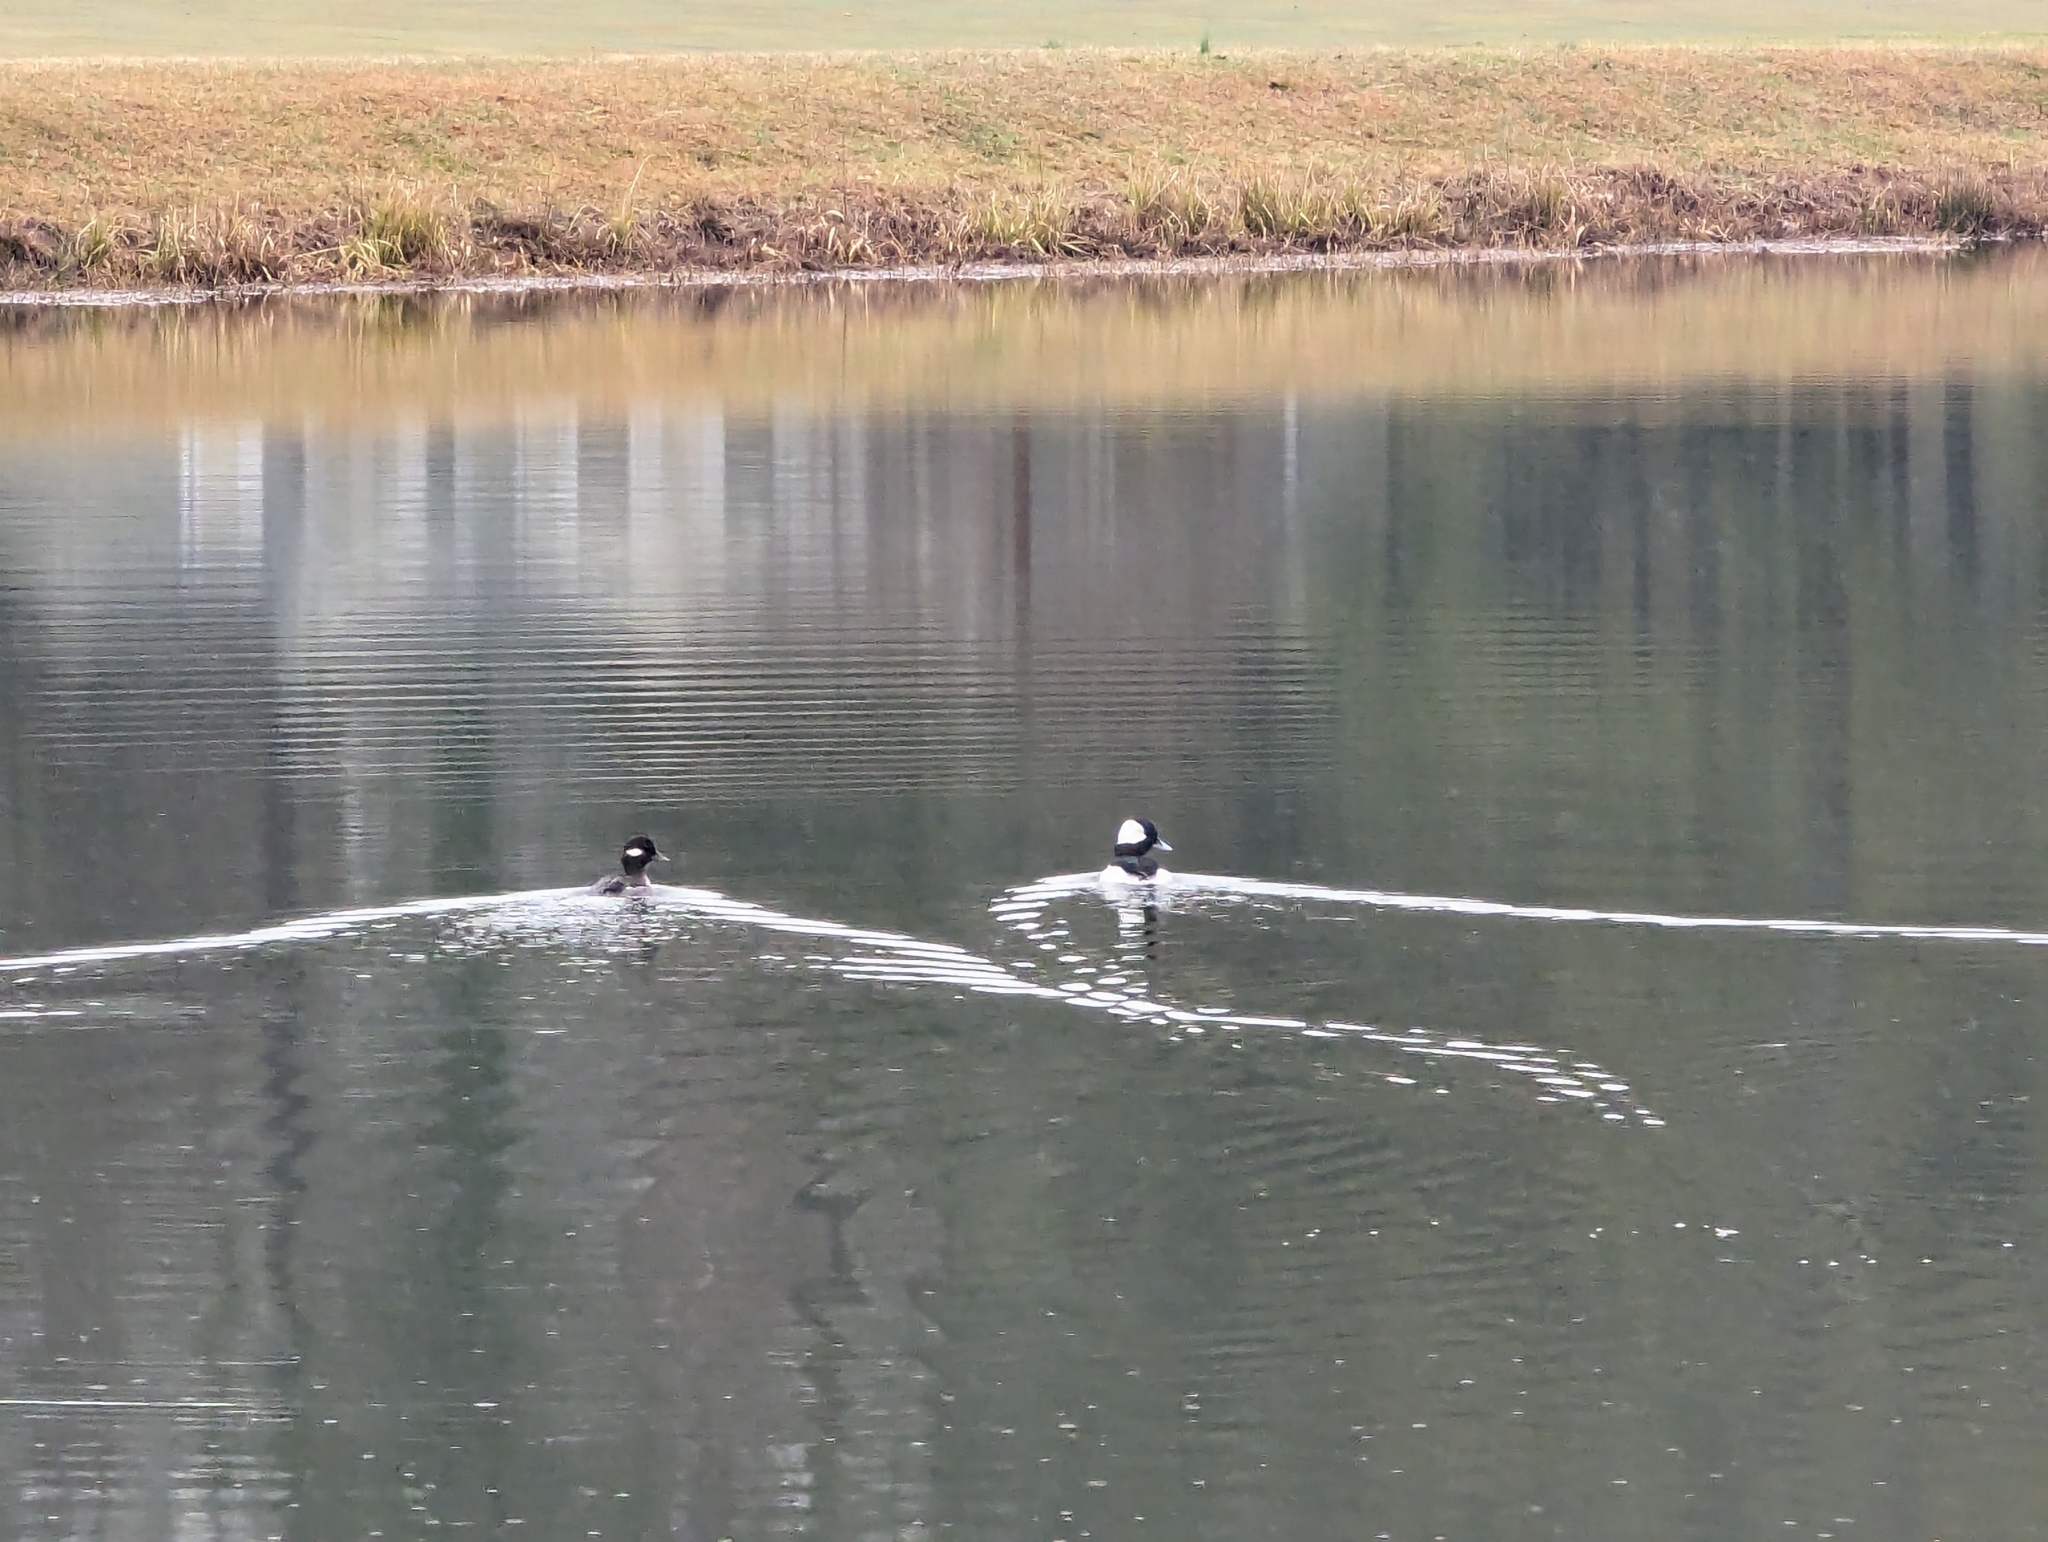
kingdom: Animalia
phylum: Chordata
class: Aves
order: Anseriformes
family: Anatidae
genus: Bucephala
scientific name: Bucephala albeola
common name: Bufflehead
